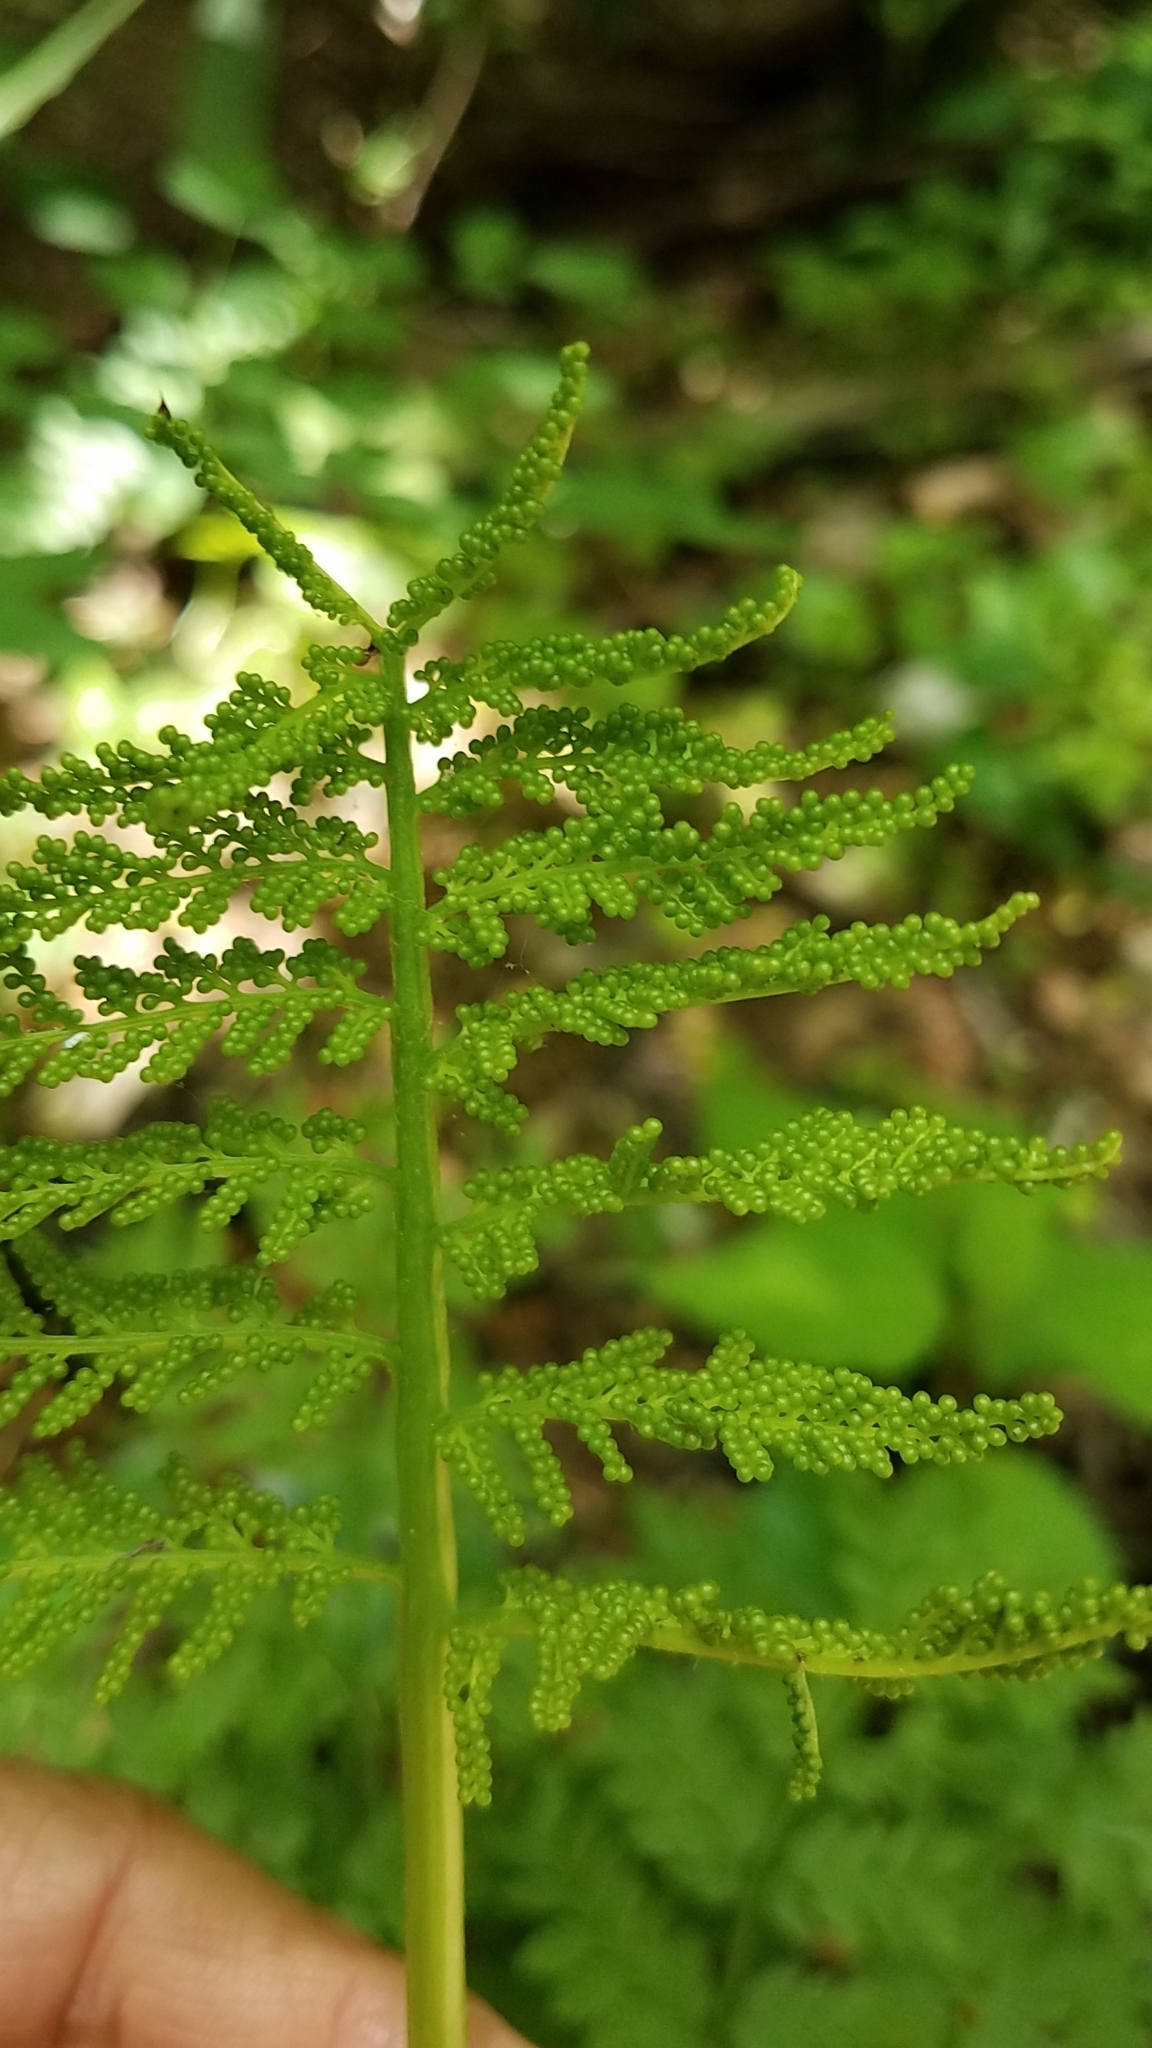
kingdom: Plantae
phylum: Tracheophyta
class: Polypodiopsida
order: Ophioglossales
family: Ophioglossaceae
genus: Botrypus
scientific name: Botrypus virginianus
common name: Common grapefern
